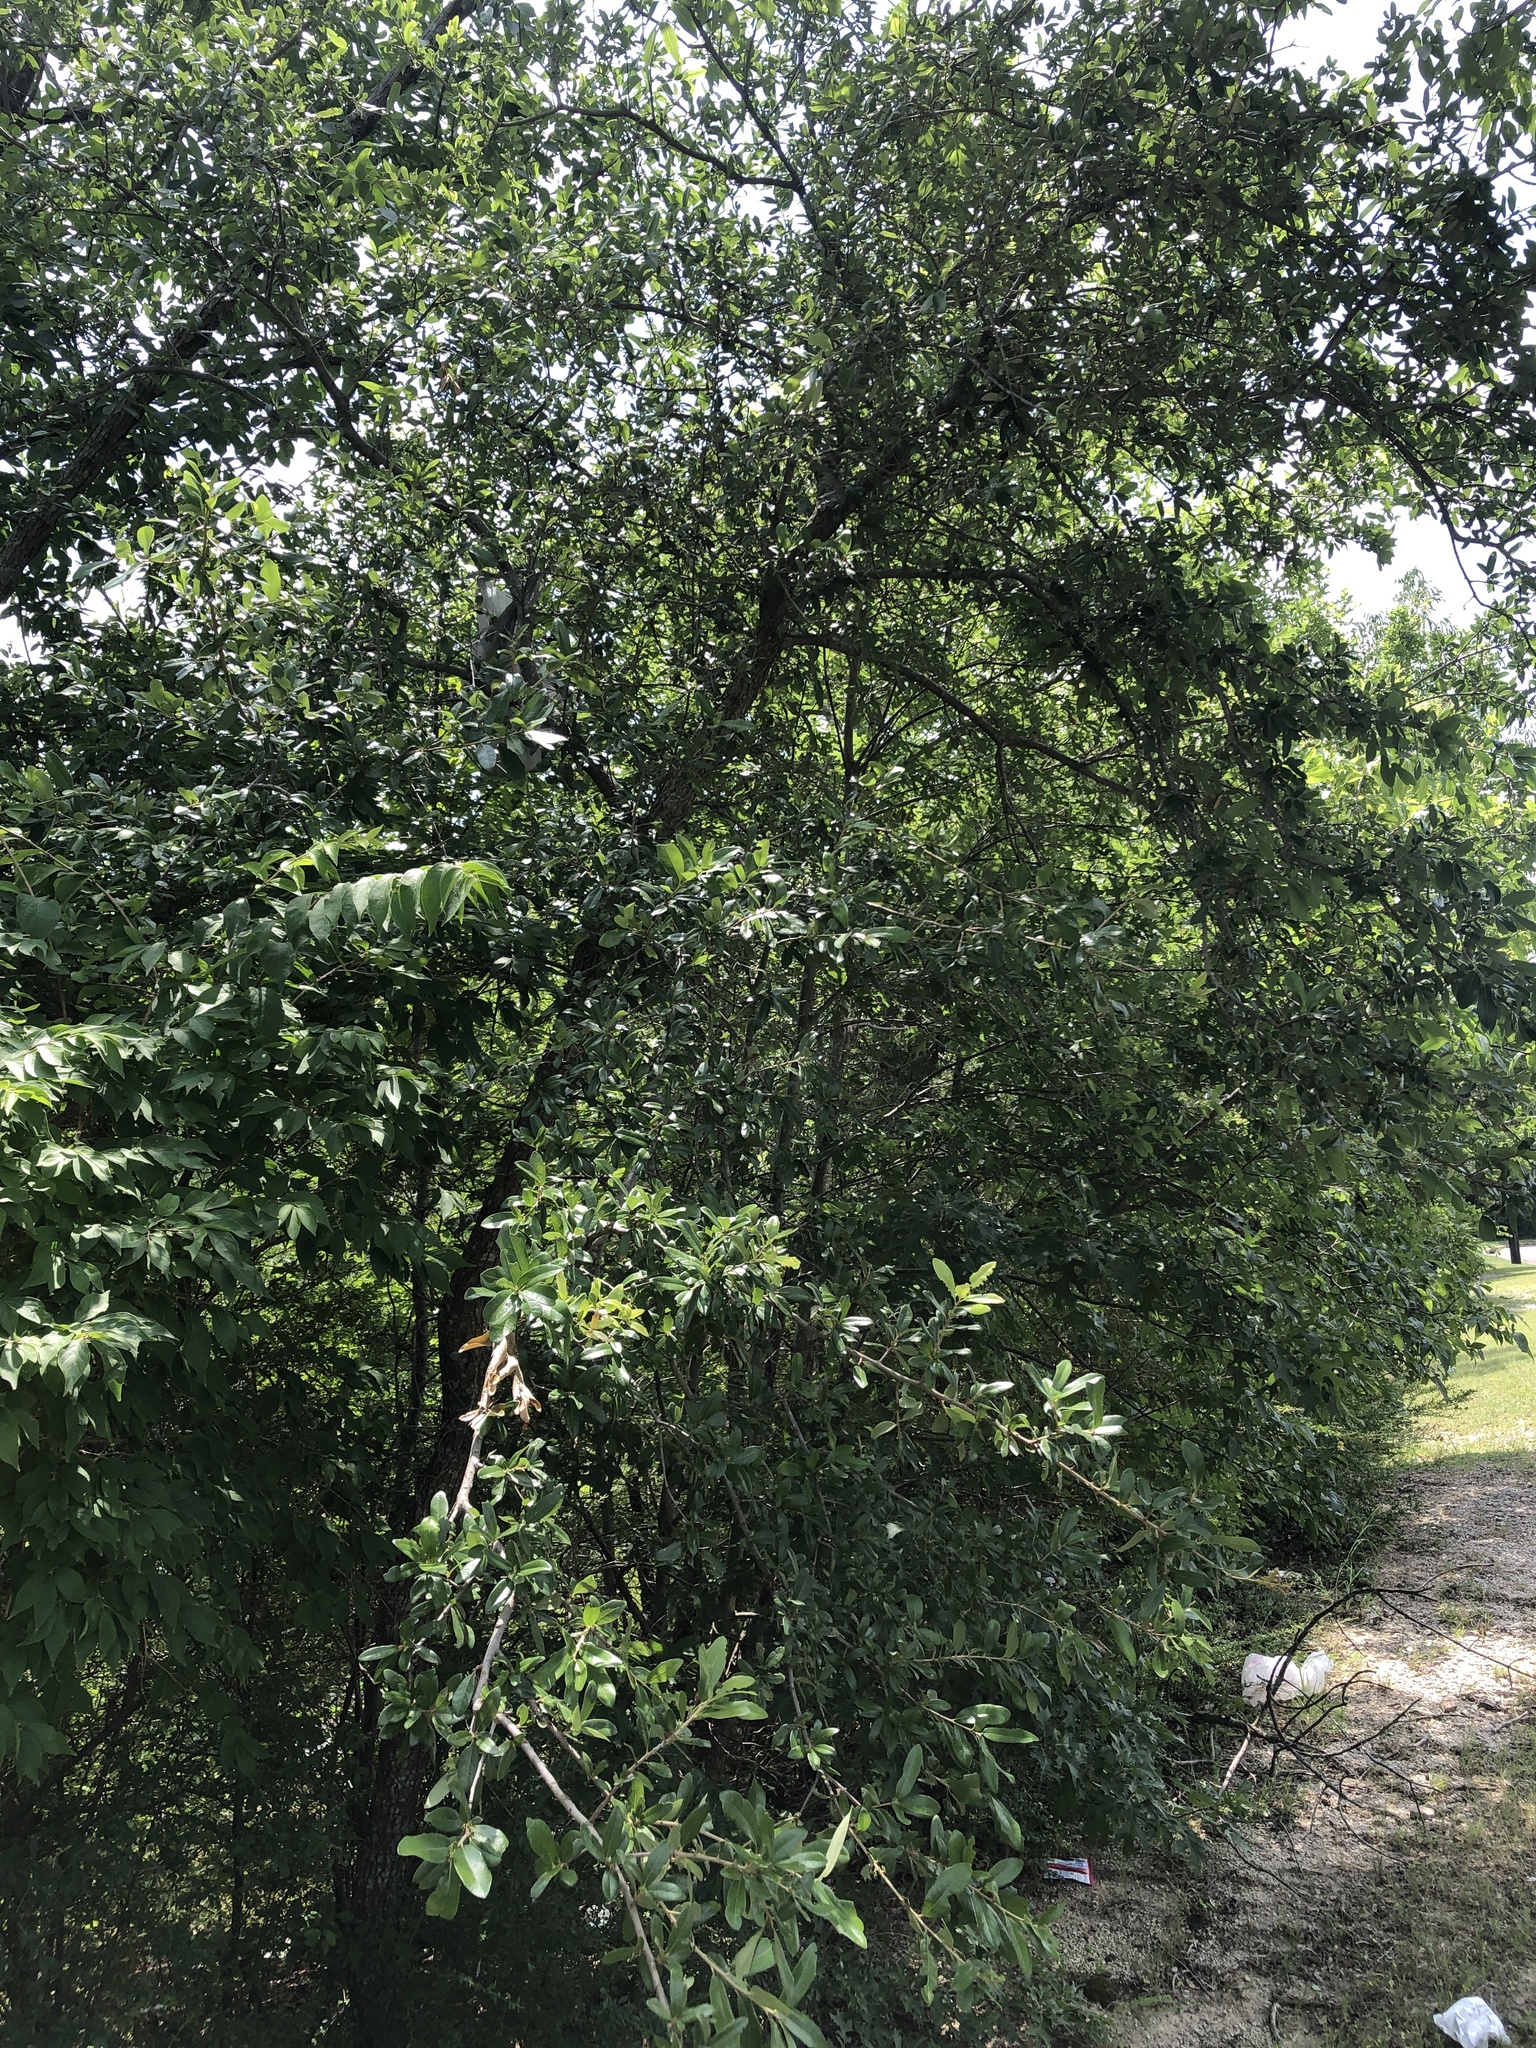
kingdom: Plantae
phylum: Tracheophyta
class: Magnoliopsida
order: Fagales
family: Fagaceae
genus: Quercus
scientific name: Quercus fusiformis
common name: Texas live oak
